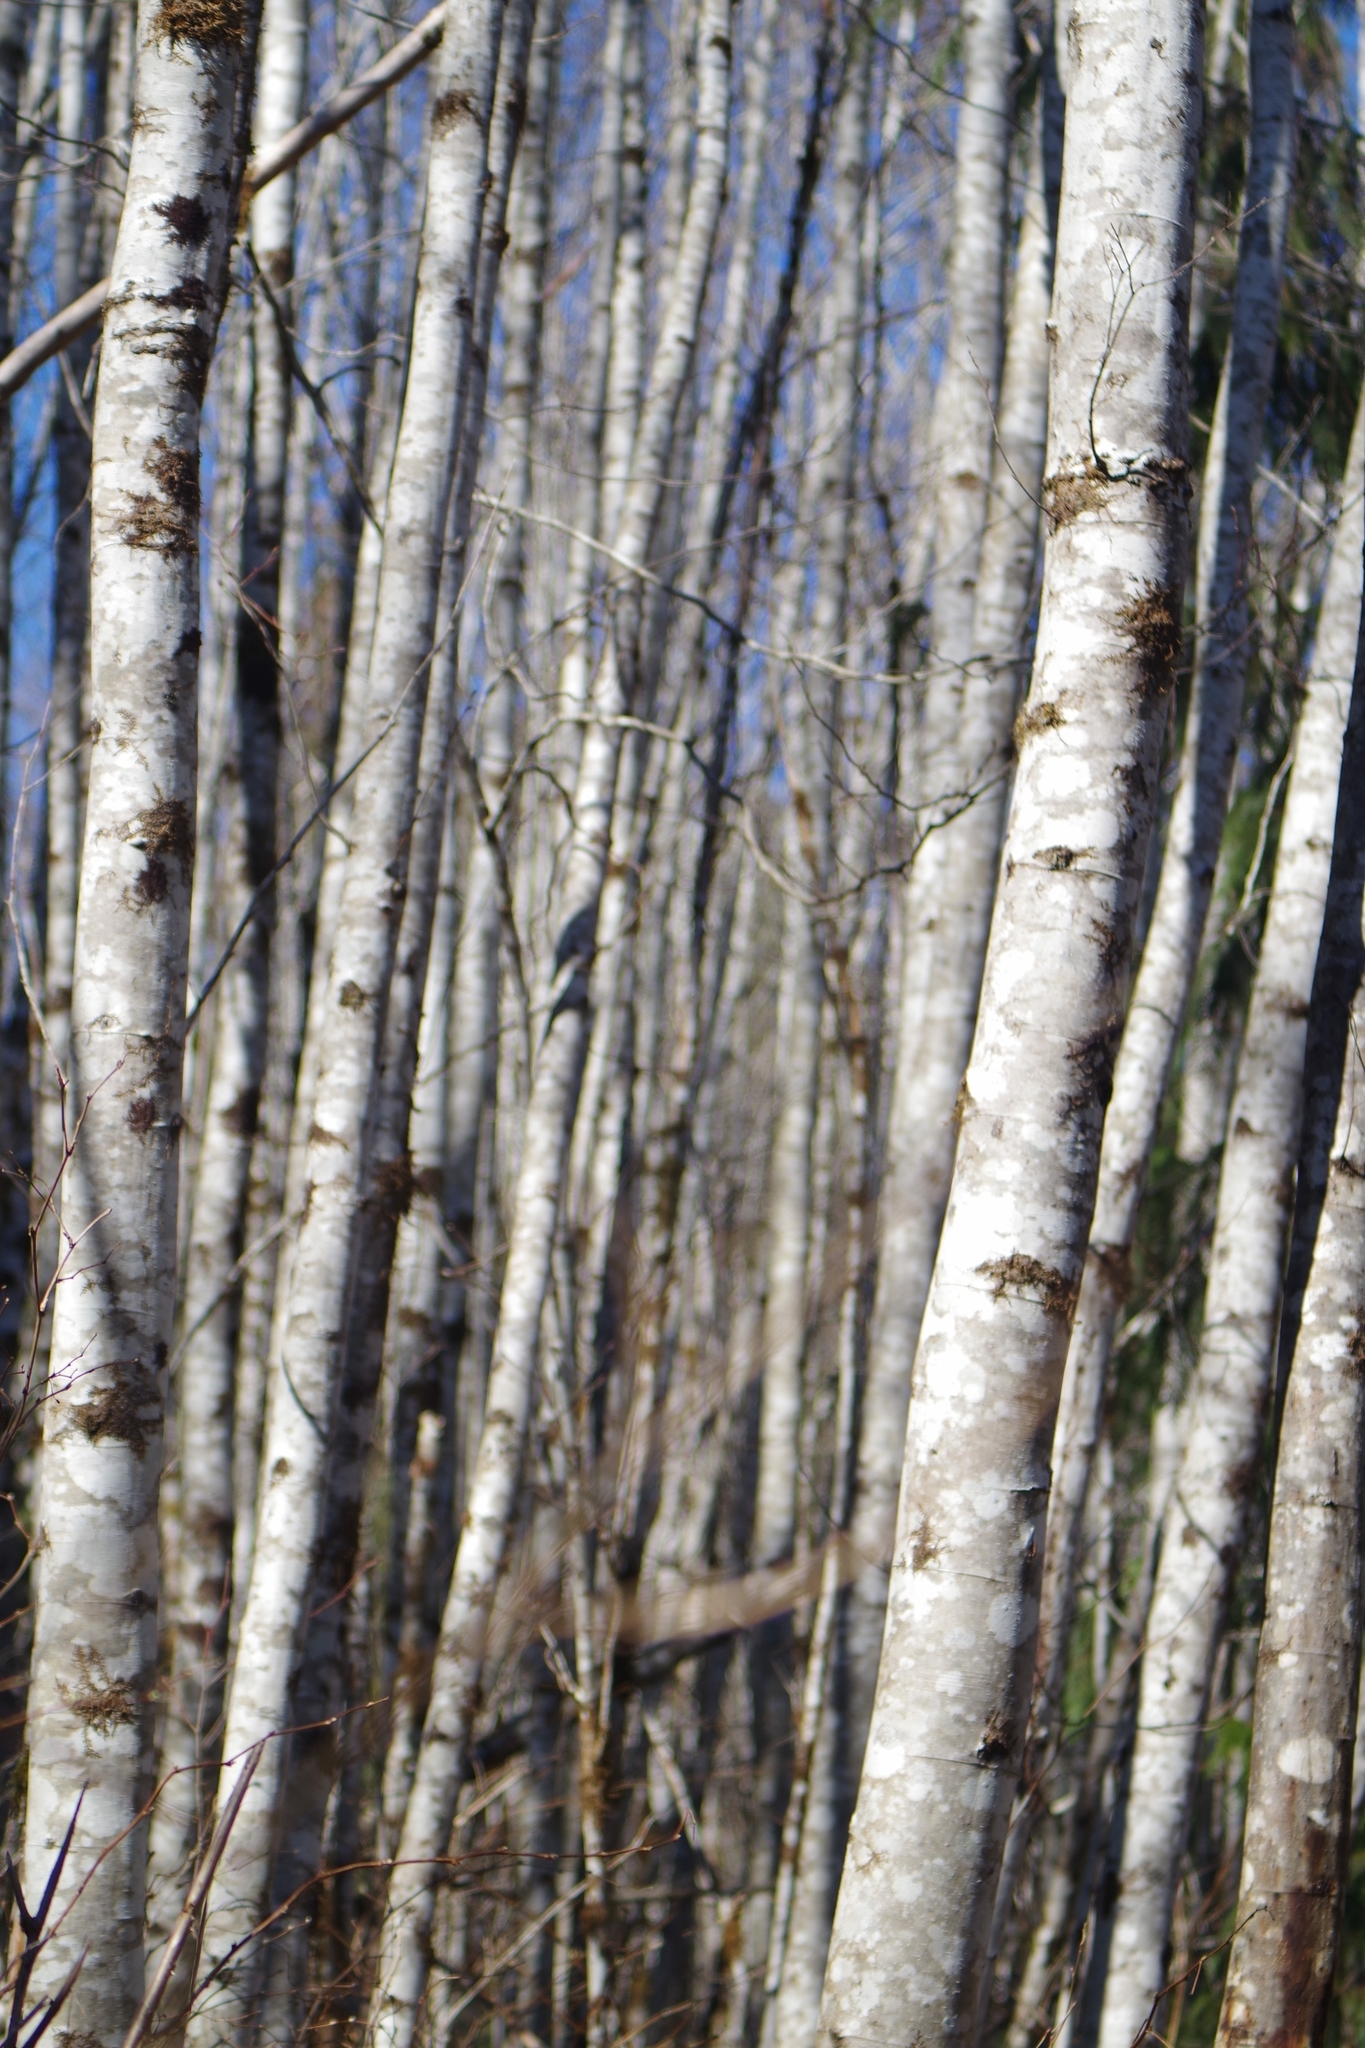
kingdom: Plantae
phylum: Tracheophyta
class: Magnoliopsida
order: Fagales
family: Betulaceae
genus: Alnus
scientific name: Alnus rubra
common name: Red alder
